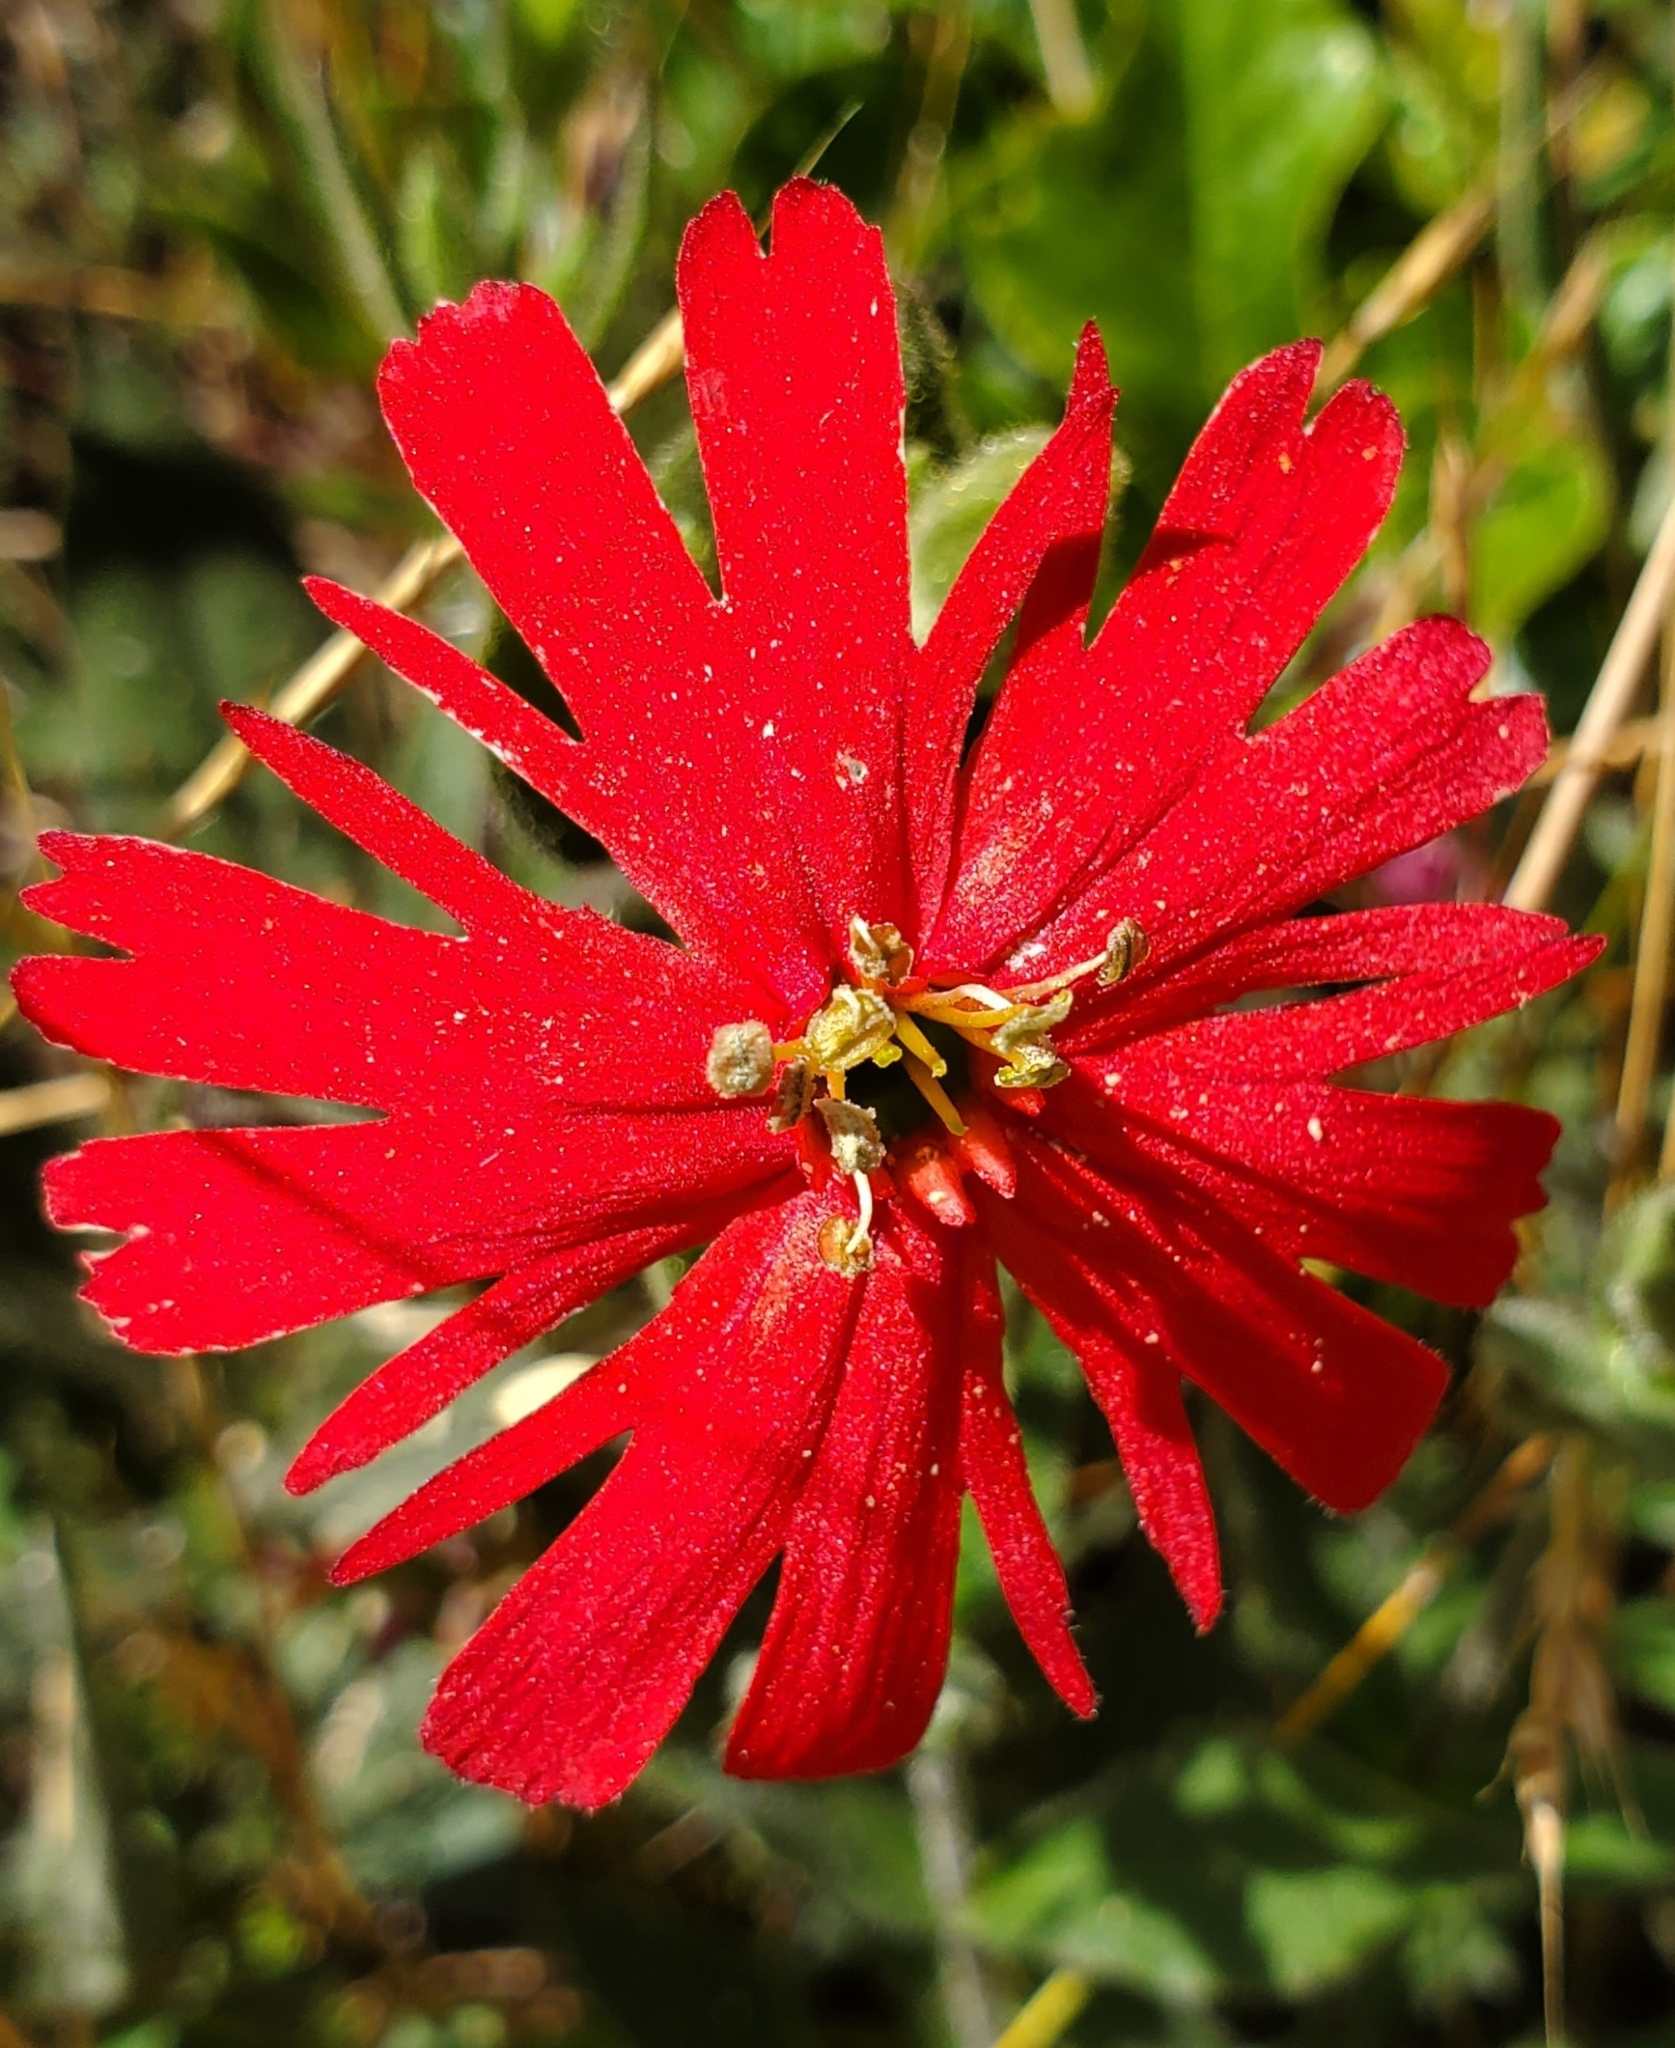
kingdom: Plantae
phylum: Tracheophyta
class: Magnoliopsida
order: Caryophyllales
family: Caryophyllaceae
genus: Silene
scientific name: Silene laciniata
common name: Indian-pink
